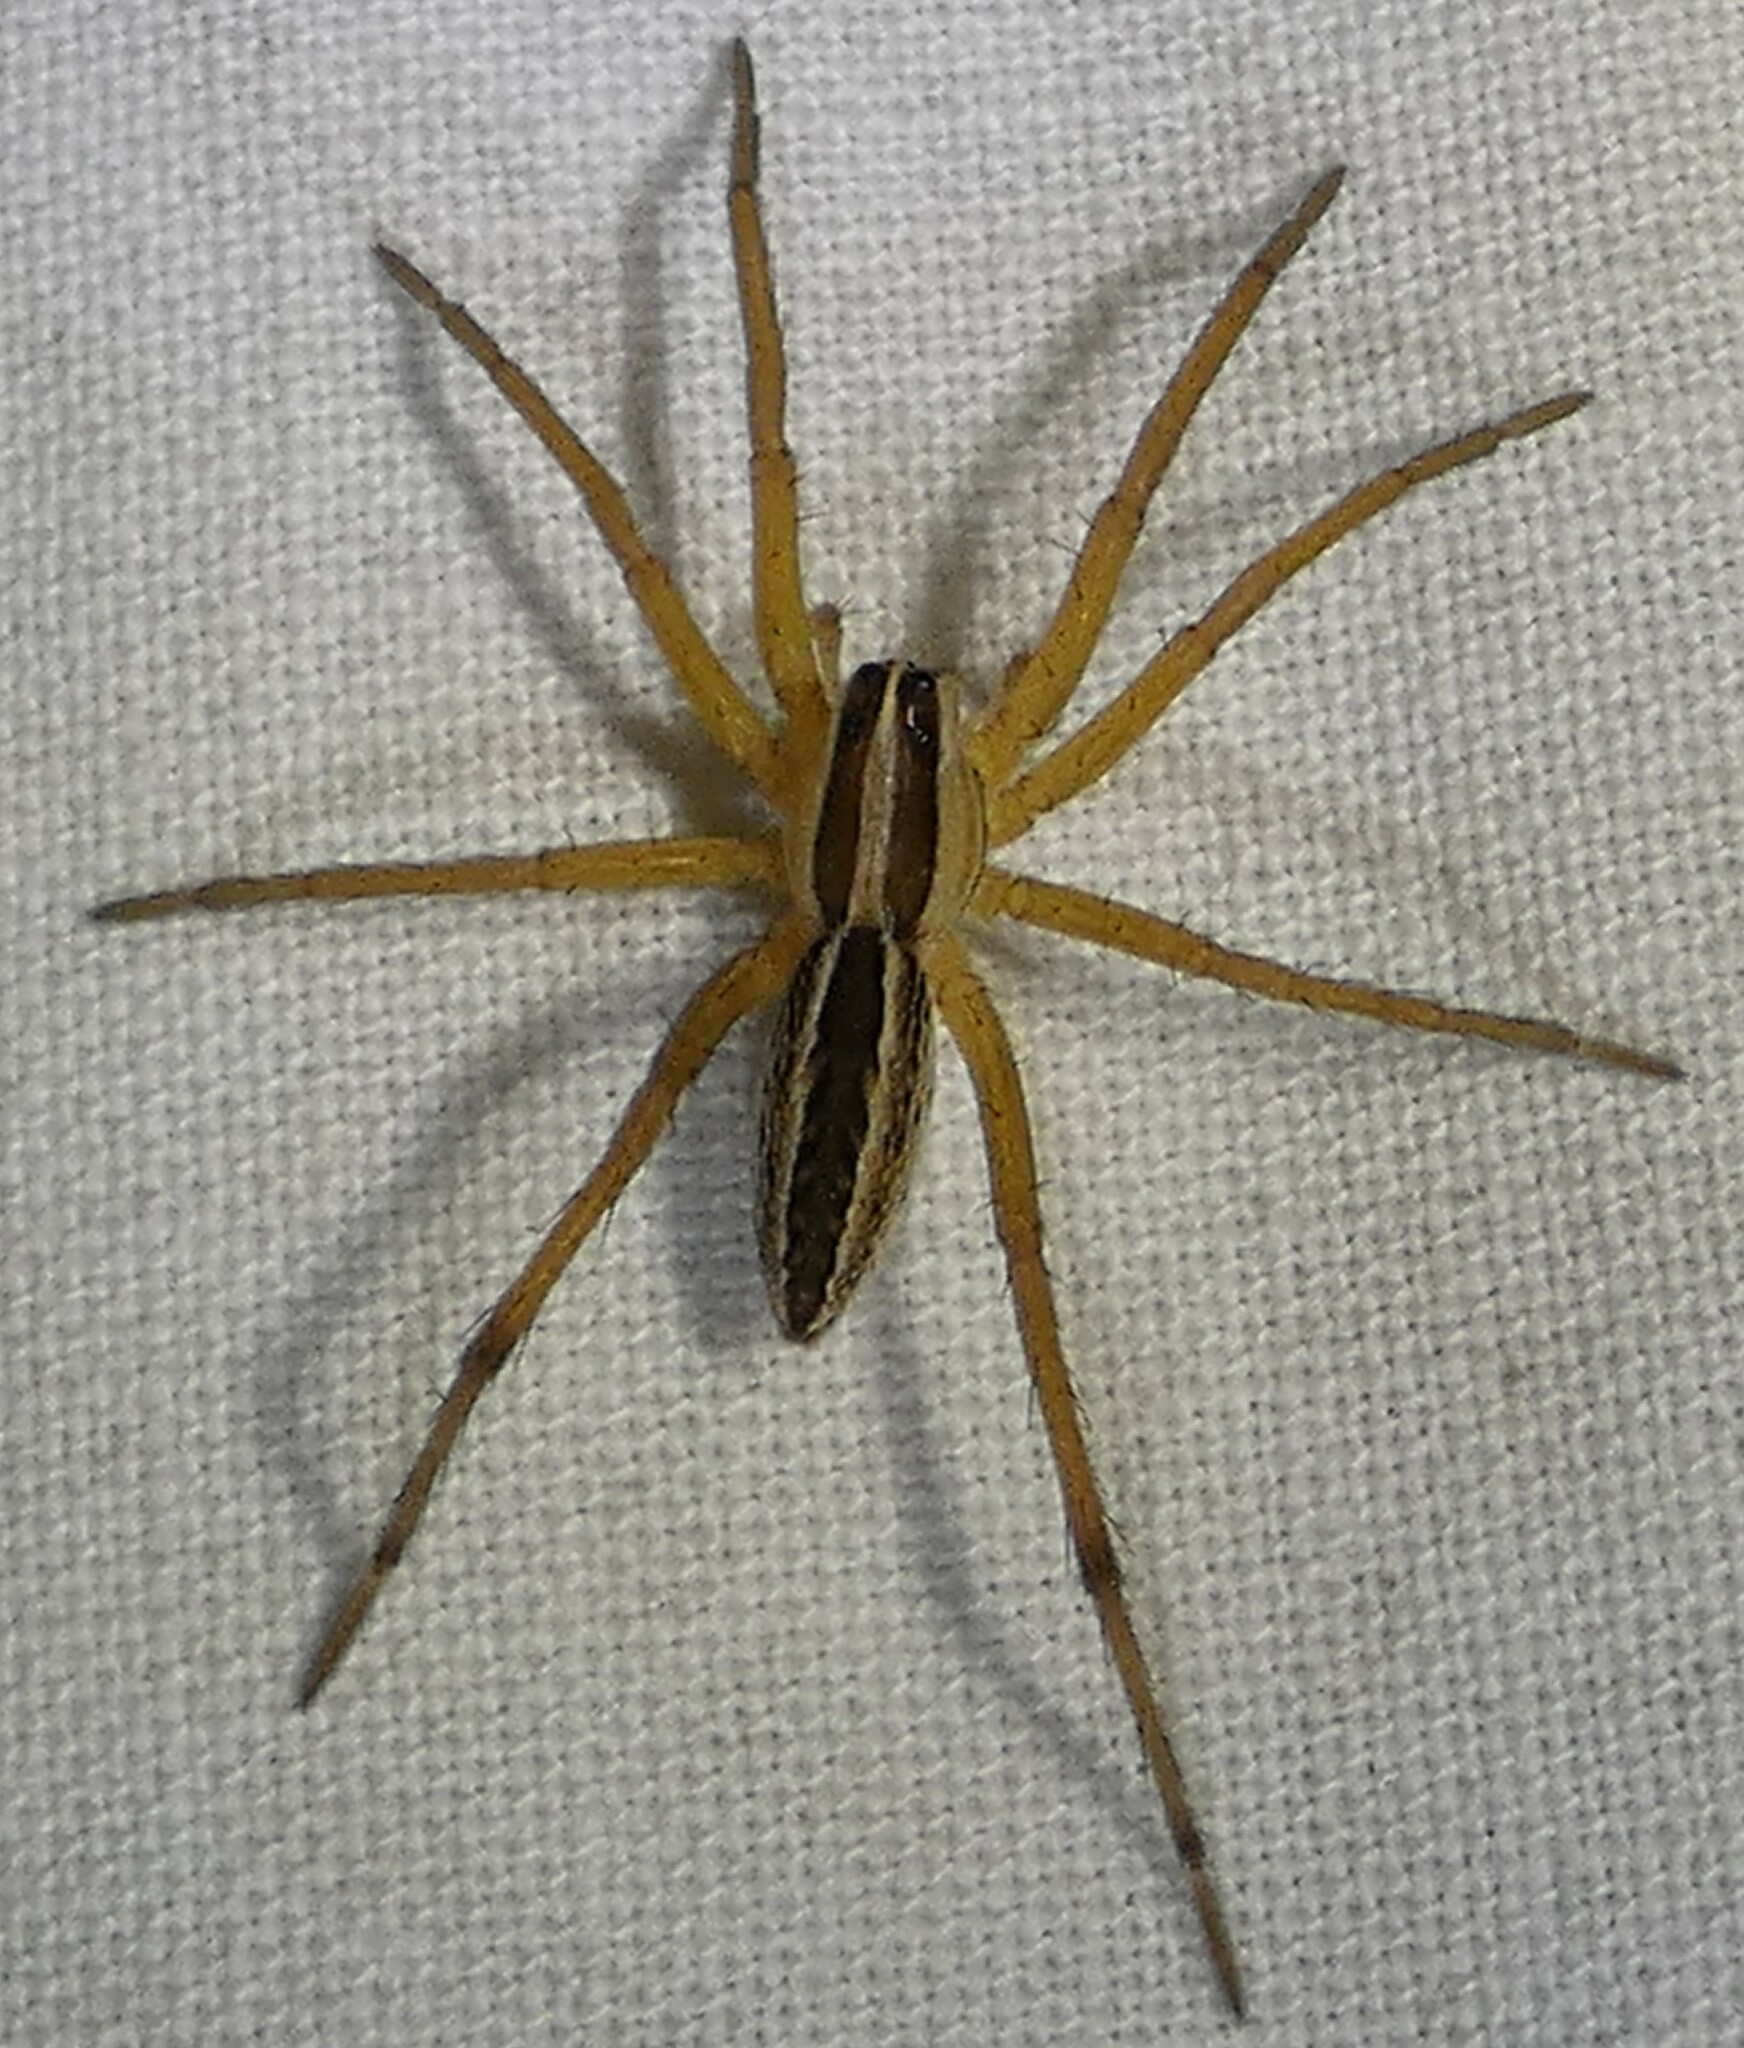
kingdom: Animalia
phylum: Arthropoda
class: Arachnida
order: Araneae
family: Lycosidae
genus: Rabidosa
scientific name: Rabidosa rabida
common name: Rabid wolf spider
